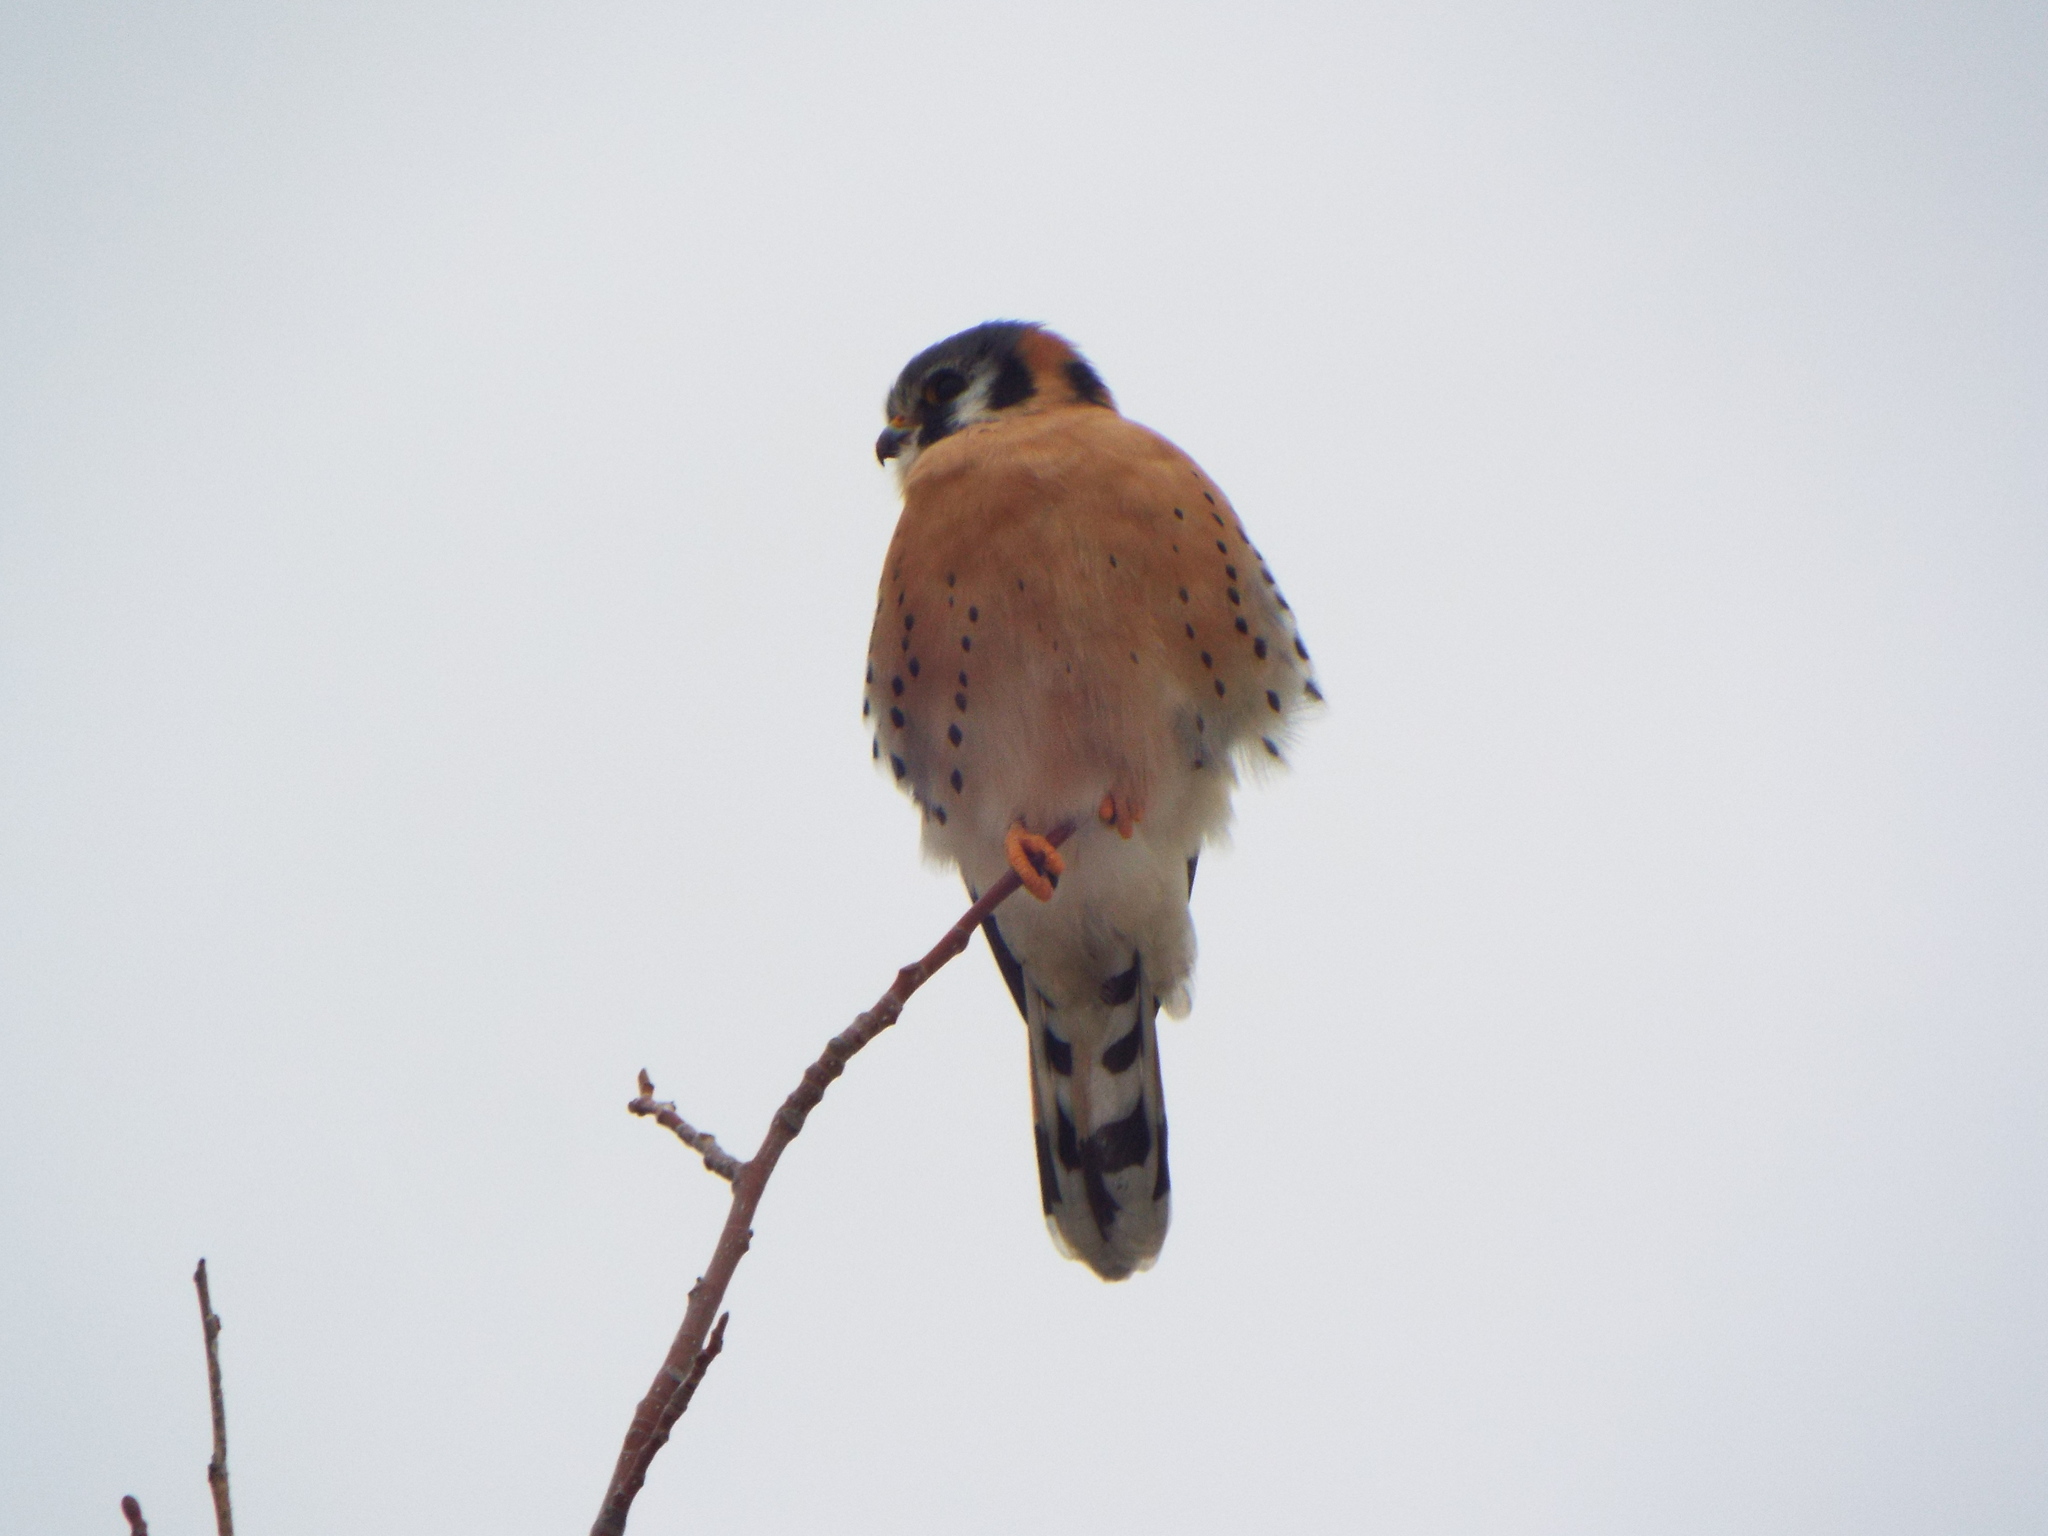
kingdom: Animalia
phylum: Chordata
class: Aves
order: Falconiformes
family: Falconidae
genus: Falco
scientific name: Falco sparverius
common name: American kestrel
